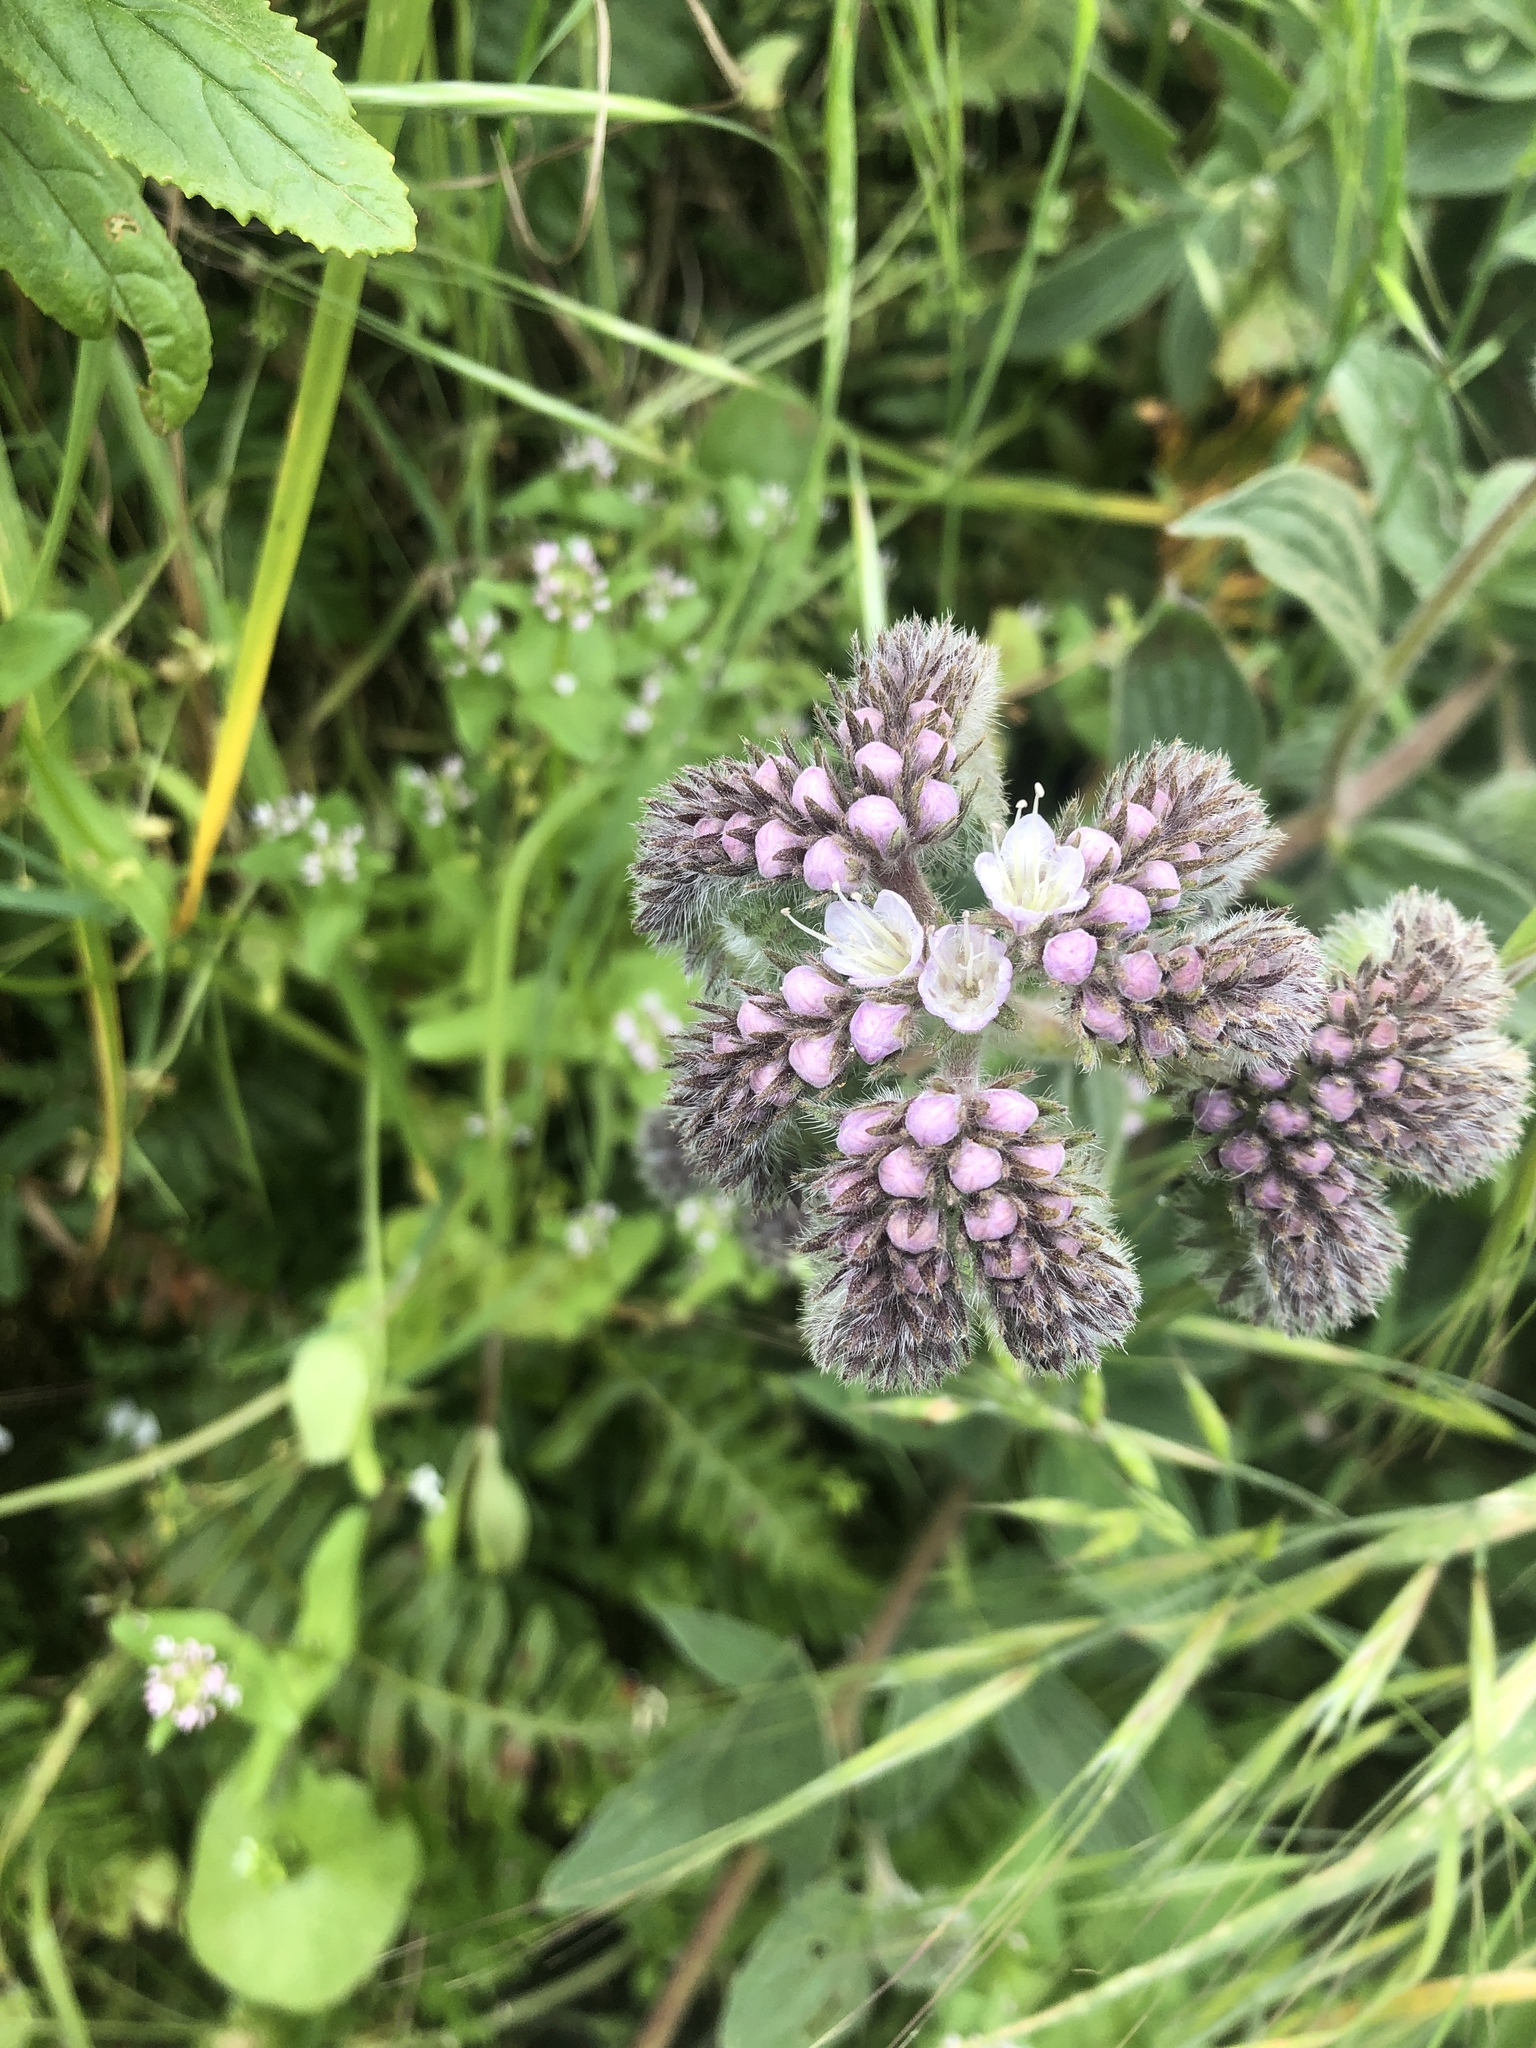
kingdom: Plantae
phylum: Tracheophyta
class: Magnoliopsida
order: Boraginales
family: Hydrophyllaceae
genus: Phacelia
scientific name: Phacelia californica
